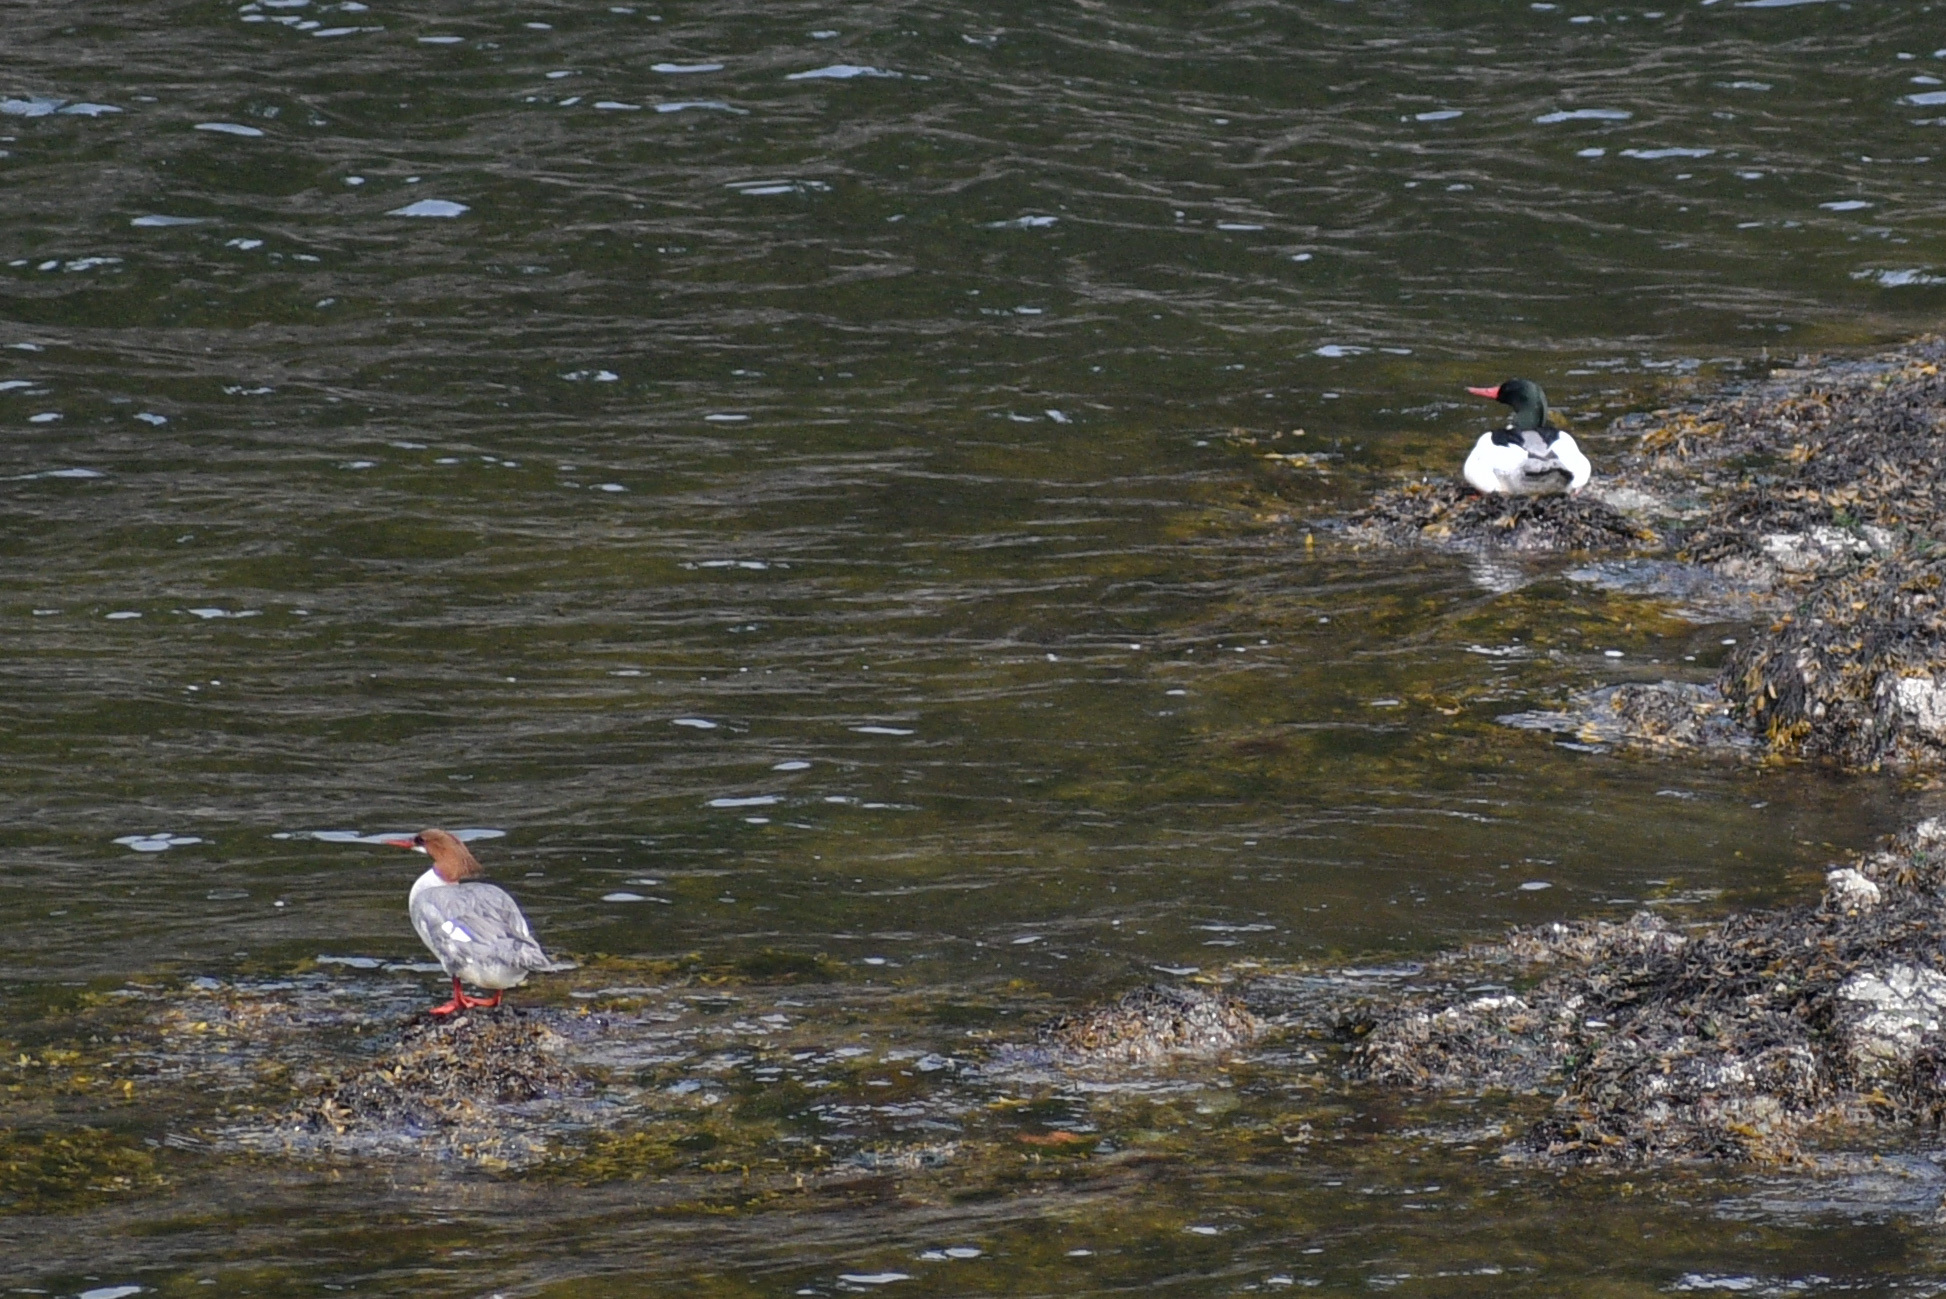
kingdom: Animalia
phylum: Chordata
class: Aves
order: Anseriformes
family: Anatidae
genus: Mergus
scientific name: Mergus merganser
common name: Common merganser
